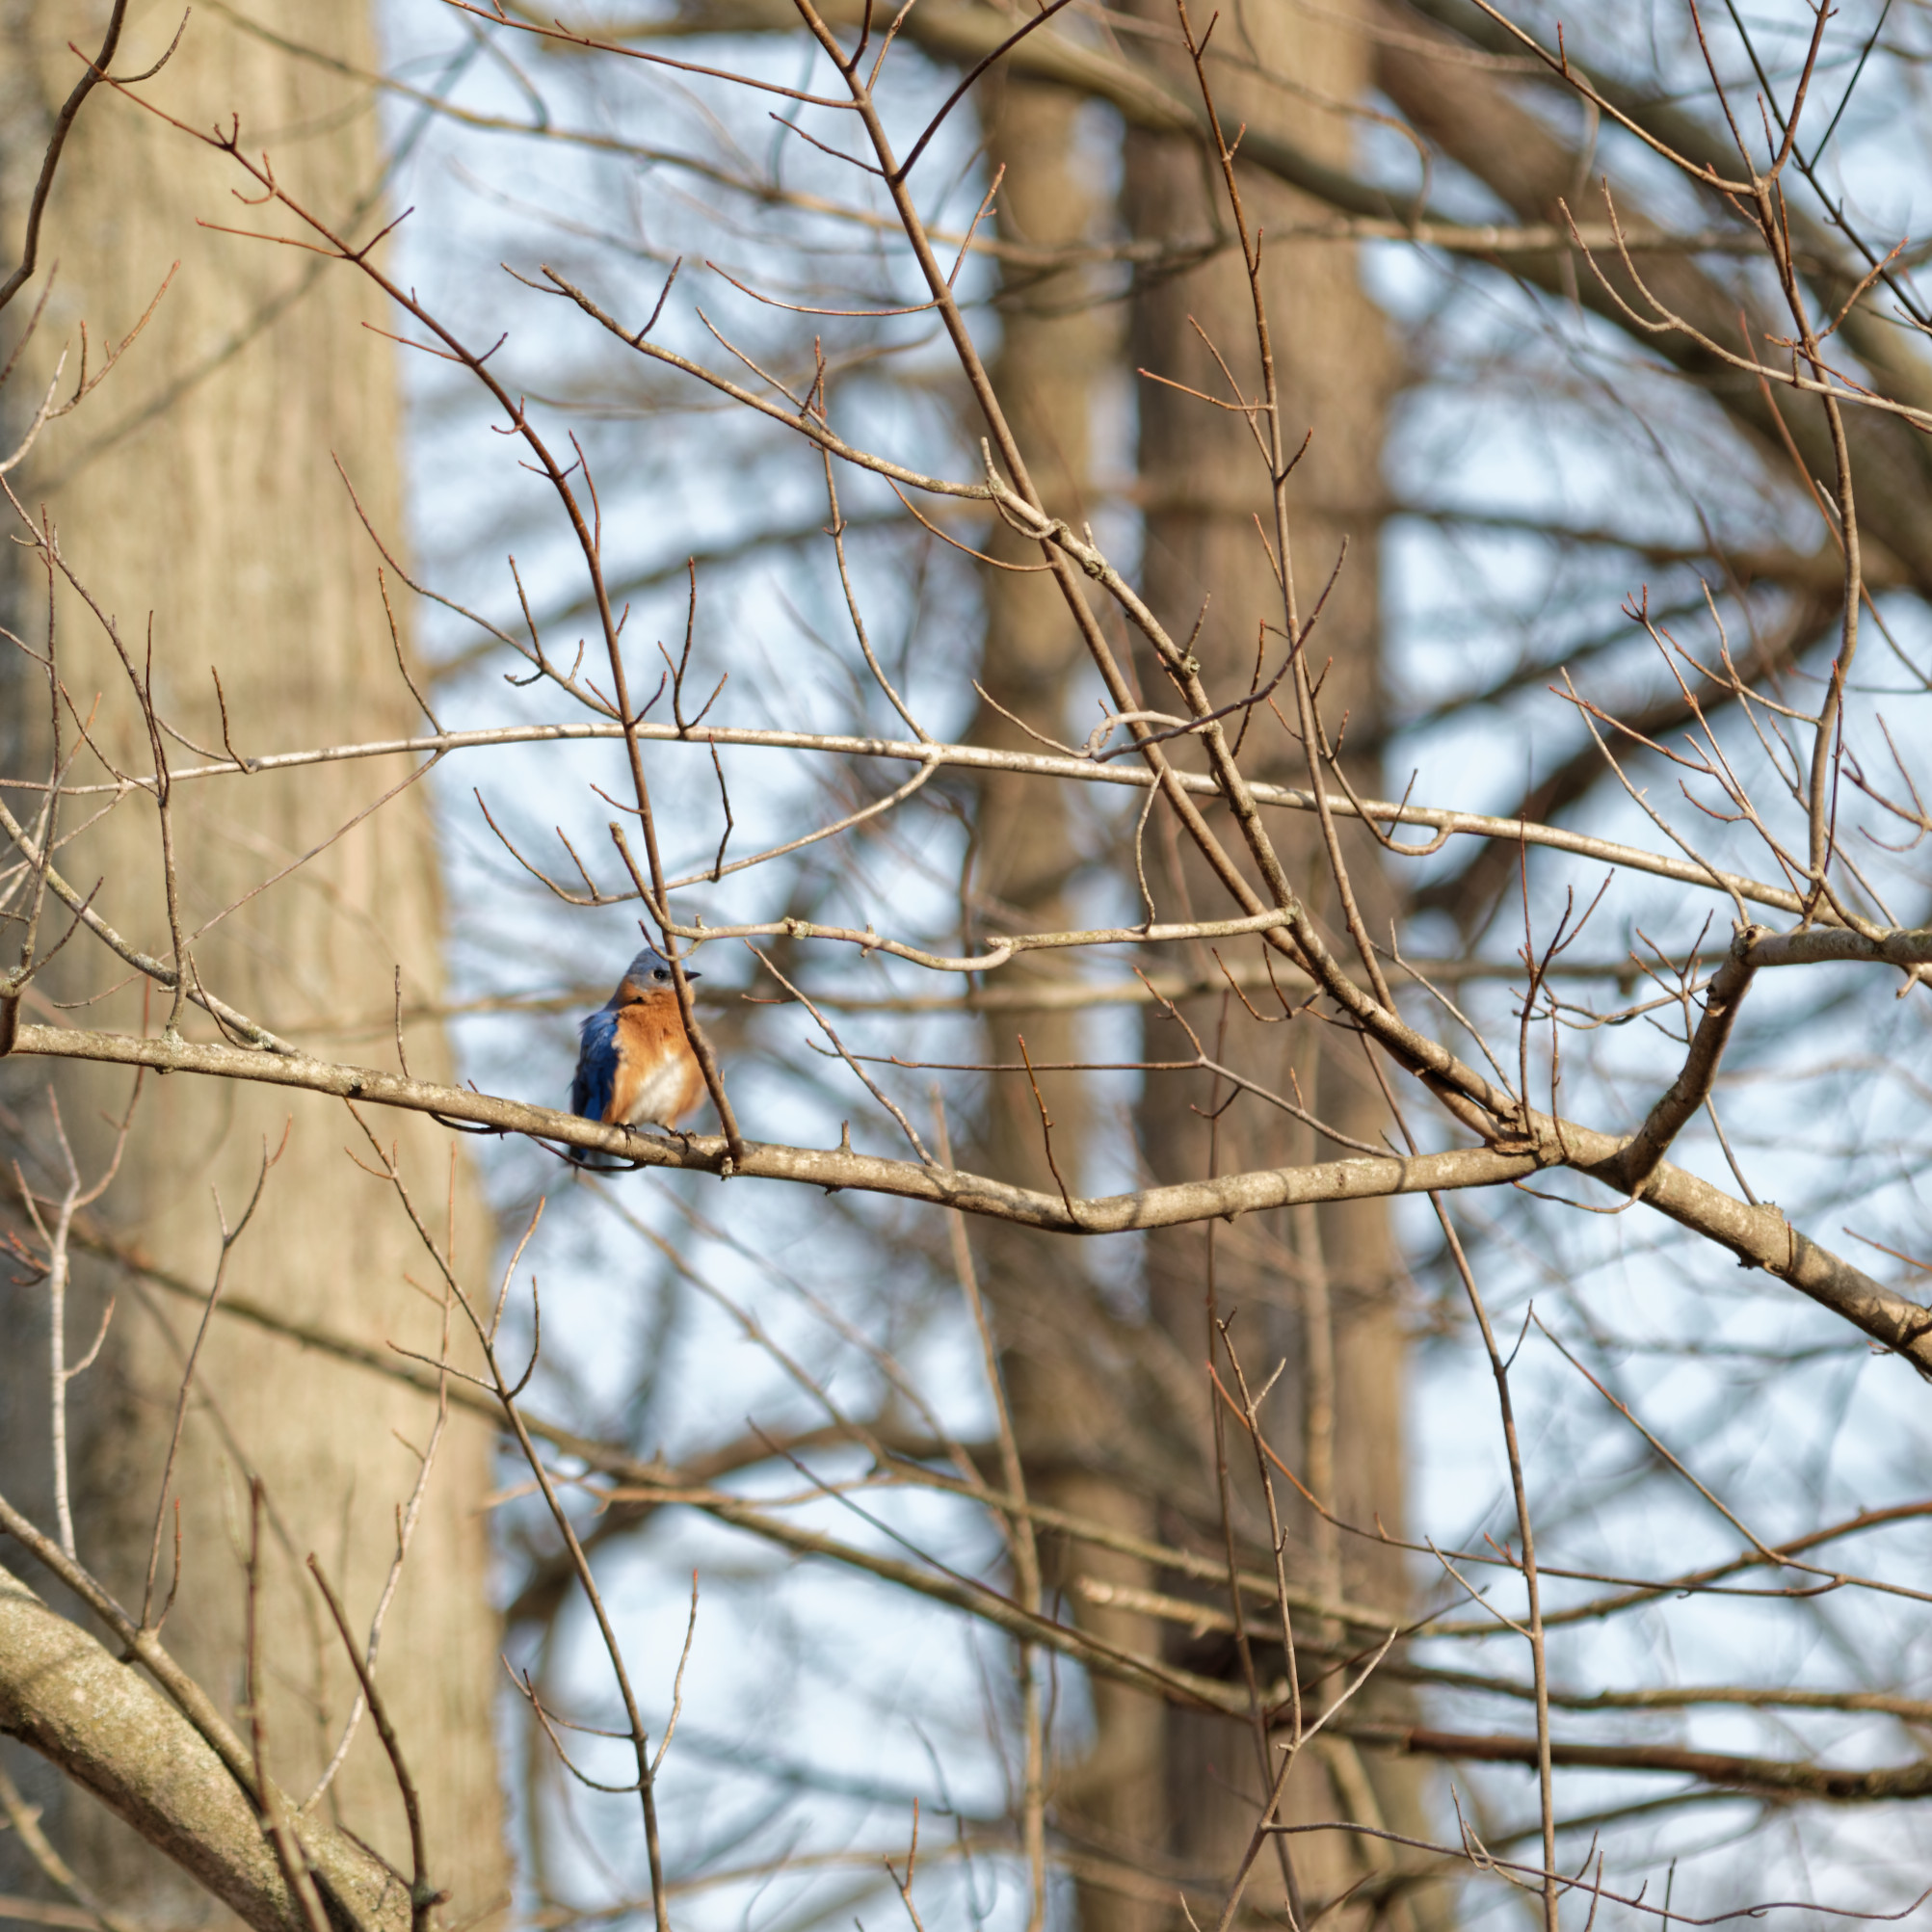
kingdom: Animalia
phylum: Chordata
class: Aves
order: Passeriformes
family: Turdidae
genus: Sialia
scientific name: Sialia sialis
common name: Eastern bluebird
